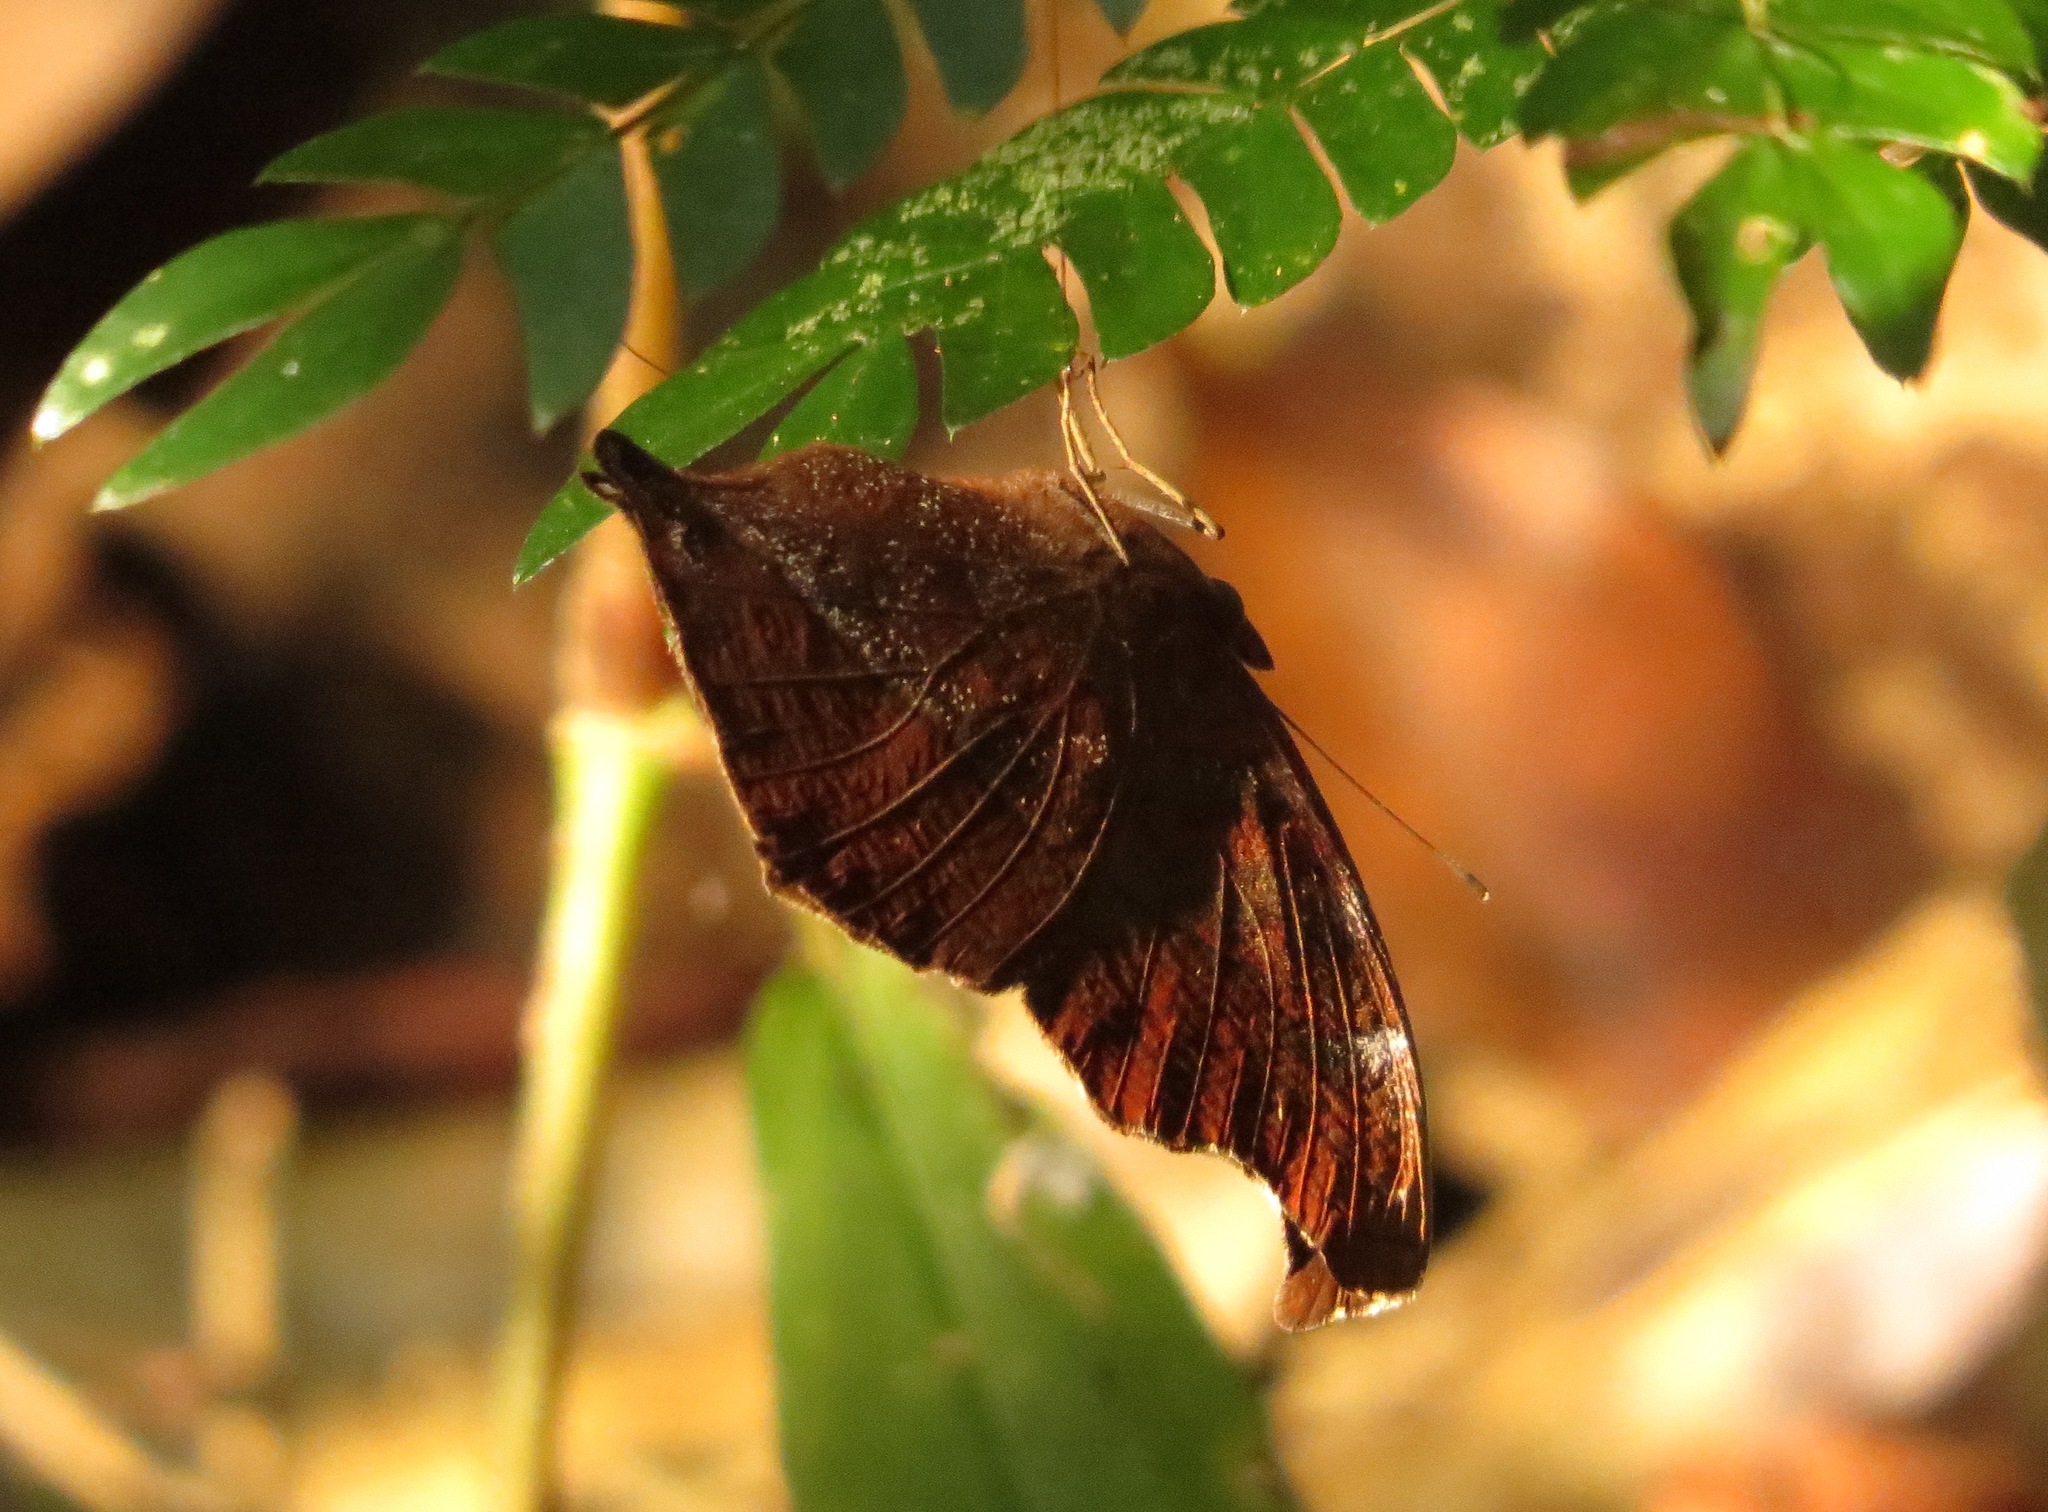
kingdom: Animalia
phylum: Arthropoda
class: Insecta
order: Lepidoptera
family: Nymphalidae
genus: Junonia
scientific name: Junonia goudotii
